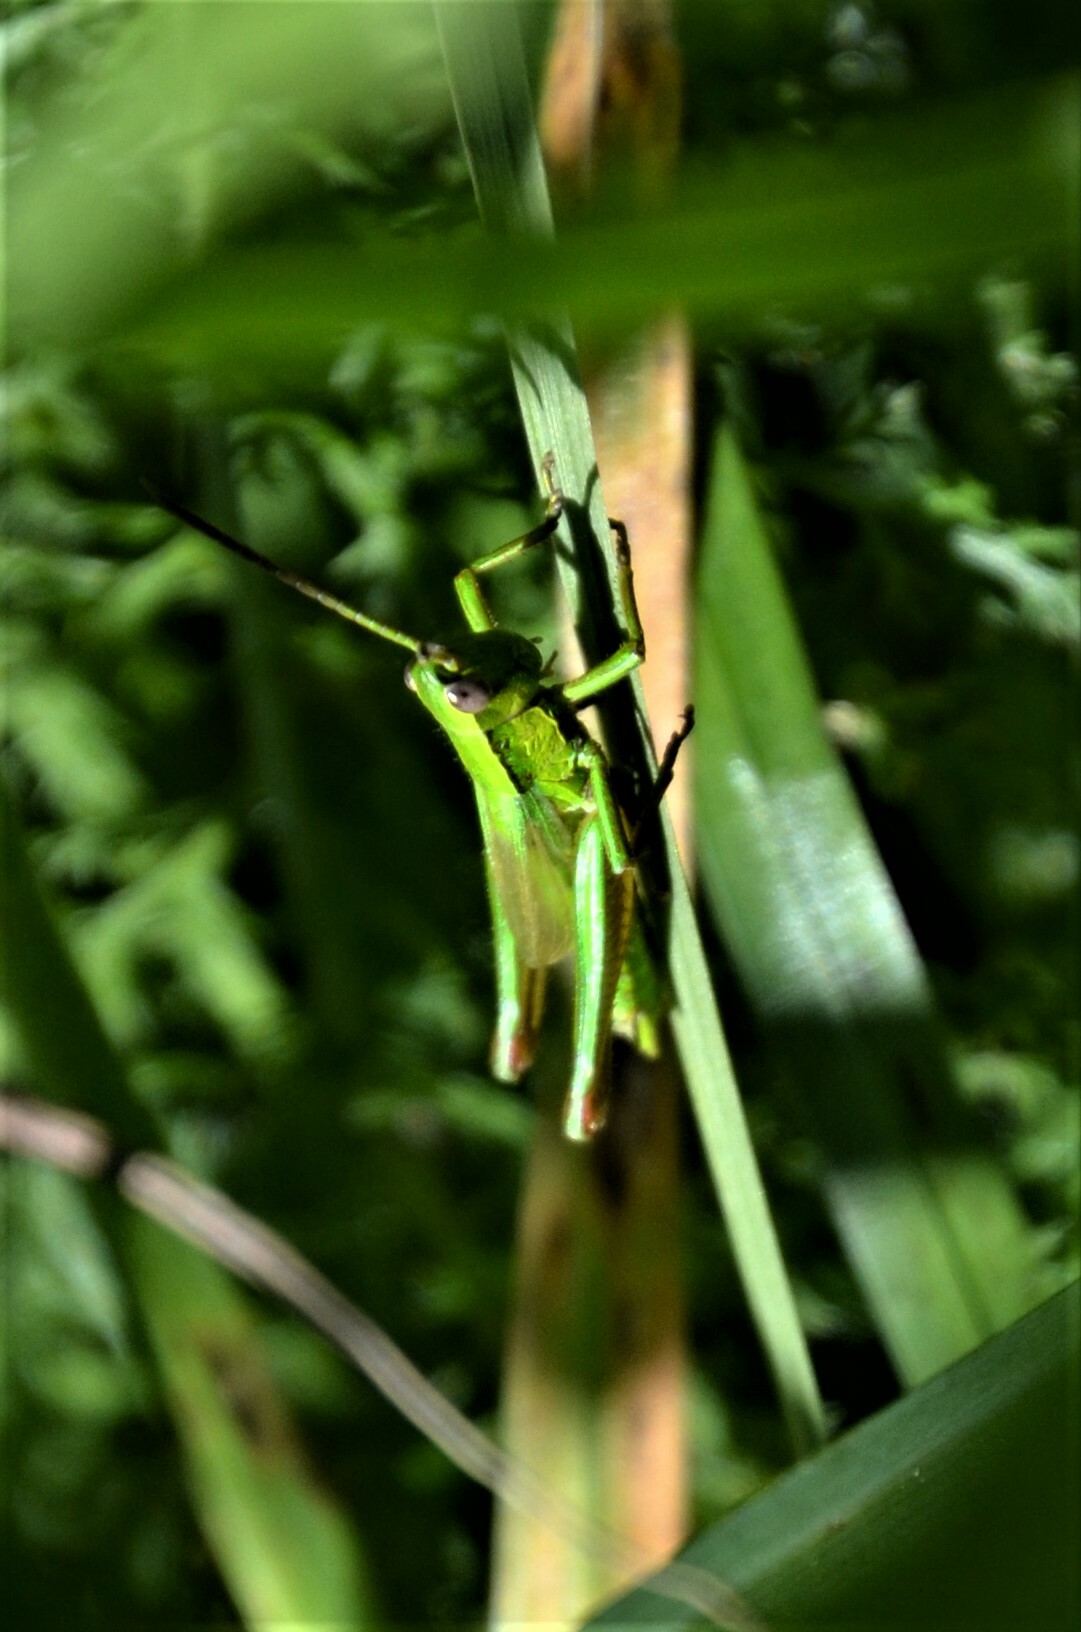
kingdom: Animalia
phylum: Arthropoda
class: Insecta
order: Orthoptera
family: Acrididae
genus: Euthystira
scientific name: Euthystira brachyptera
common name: Small gold grasshopper
